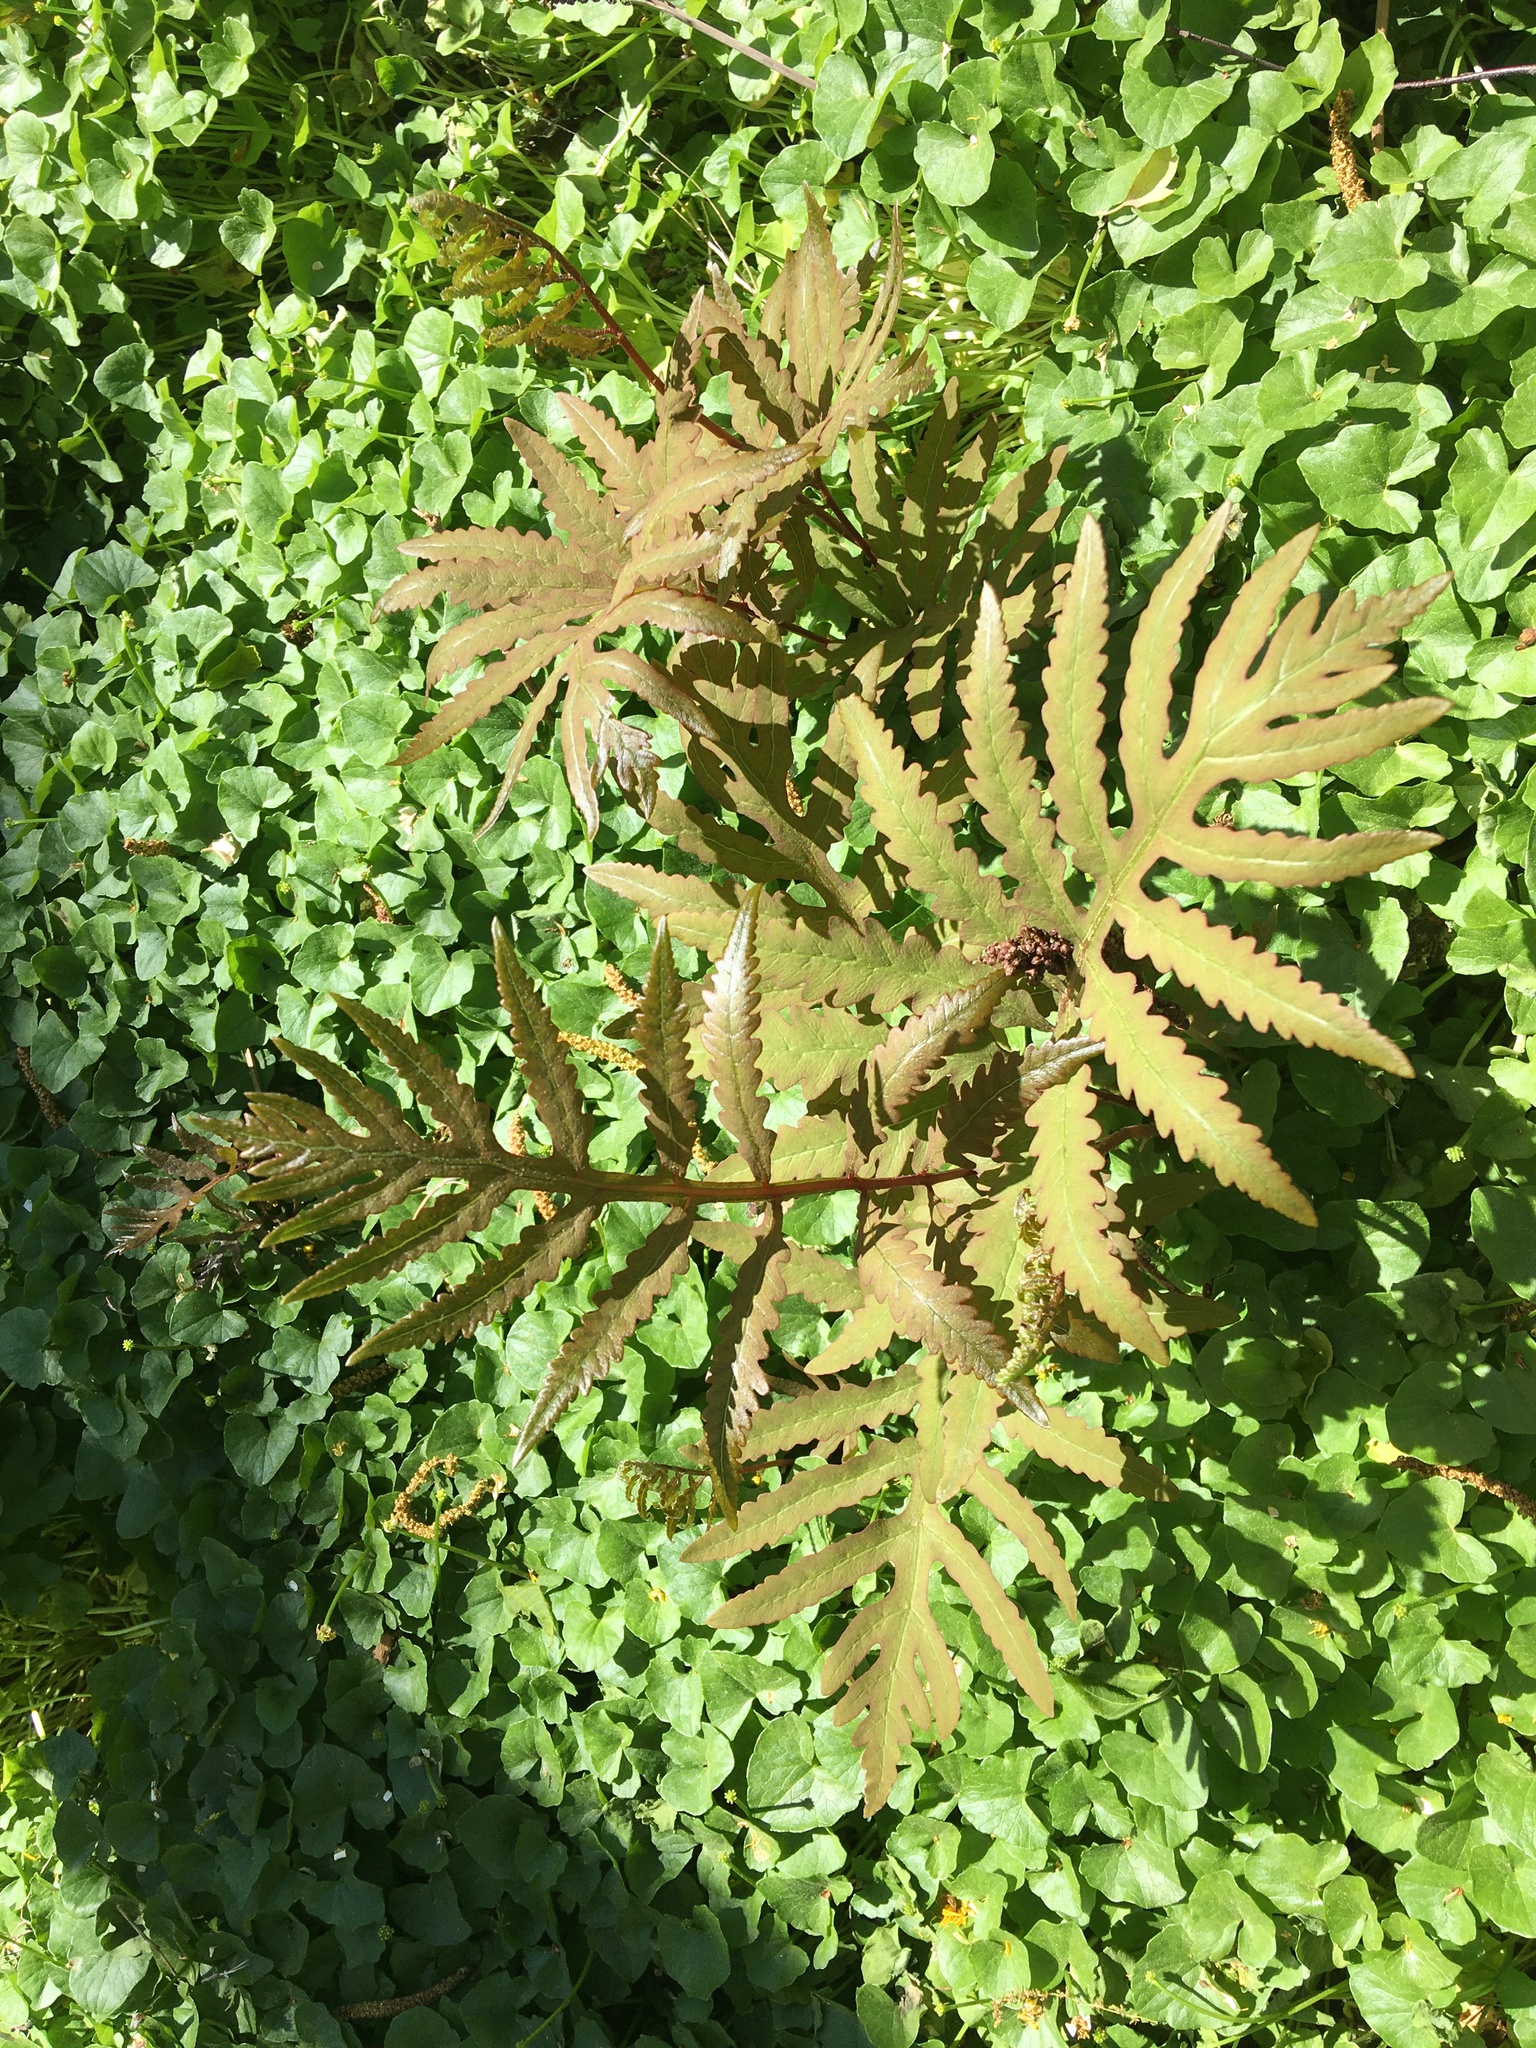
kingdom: Plantae
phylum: Tracheophyta
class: Polypodiopsida
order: Polypodiales
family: Onocleaceae
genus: Onoclea
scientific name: Onoclea sensibilis
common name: Sensitive fern
